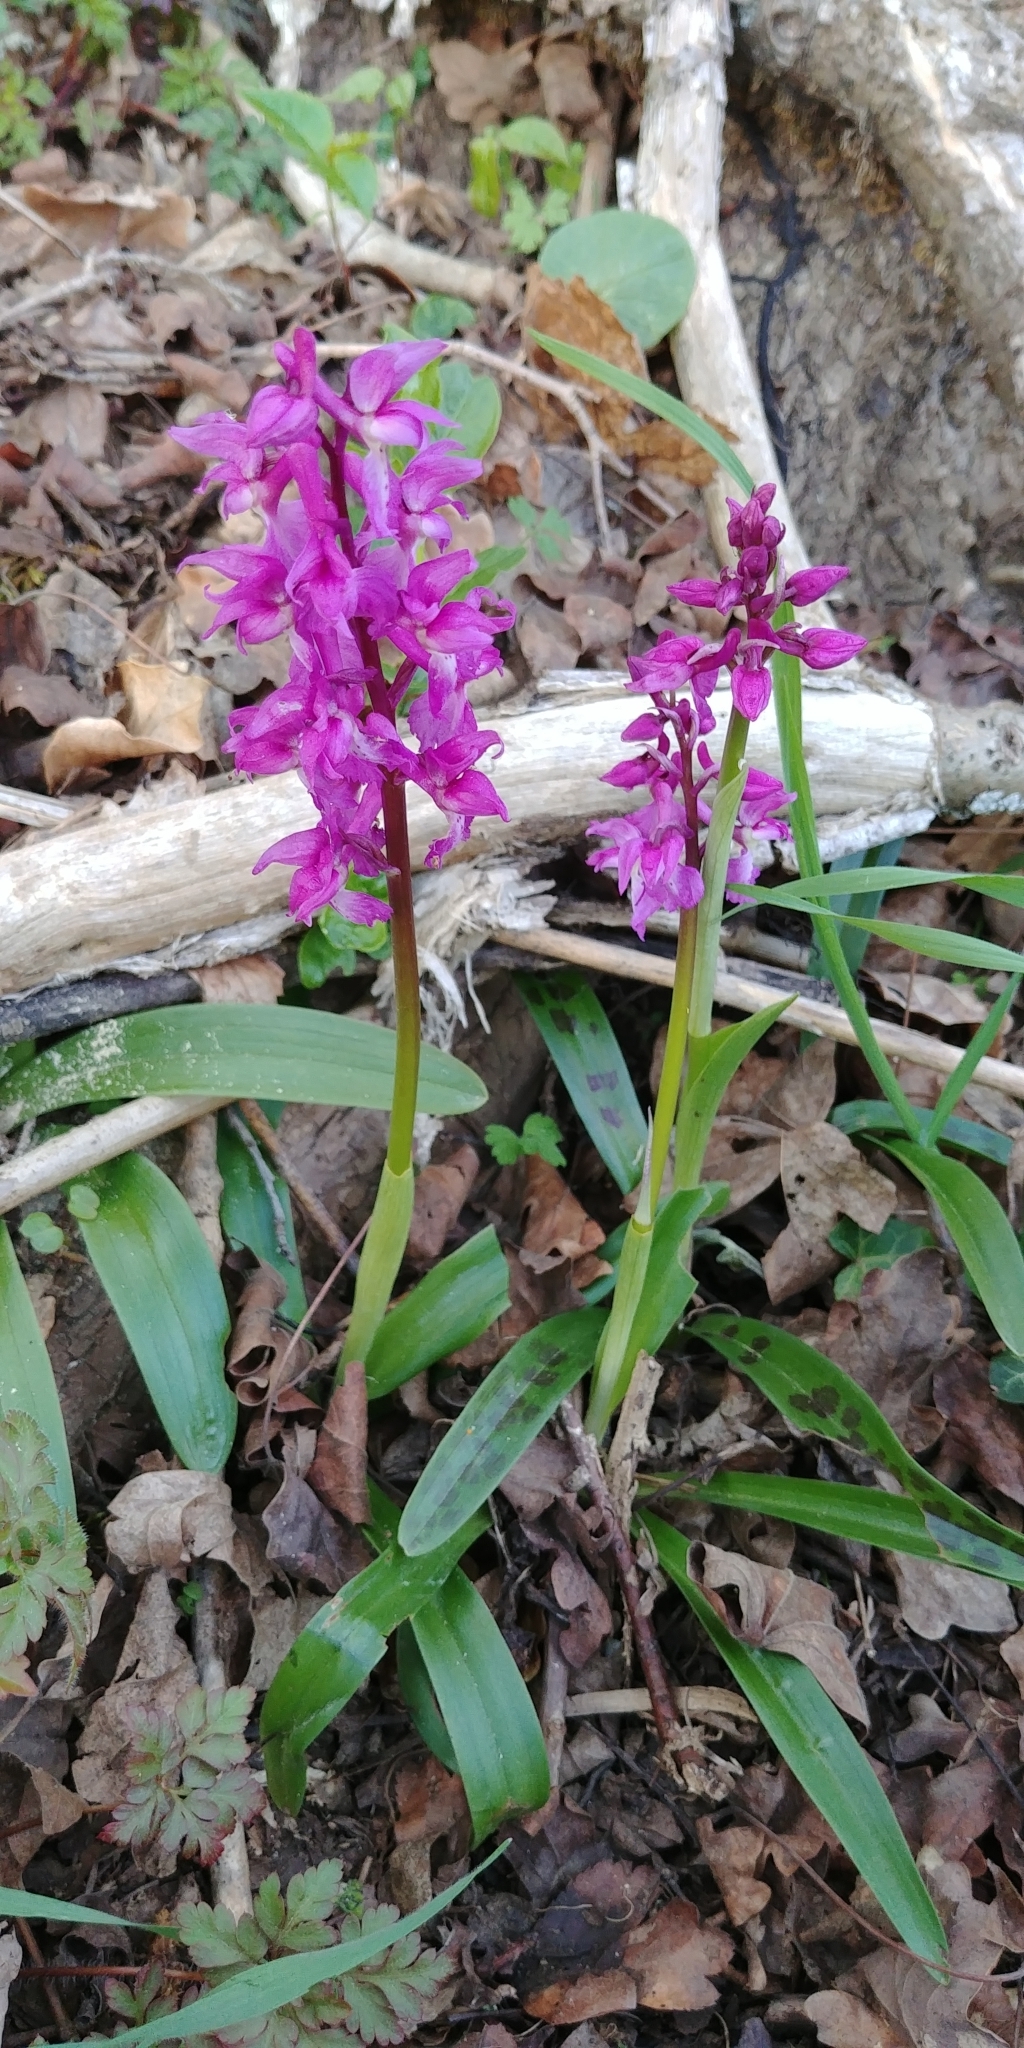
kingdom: Plantae
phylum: Tracheophyta
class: Liliopsida
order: Asparagales
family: Orchidaceae
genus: Orchis
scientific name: Orchis mascula
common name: Early-purple orchid
